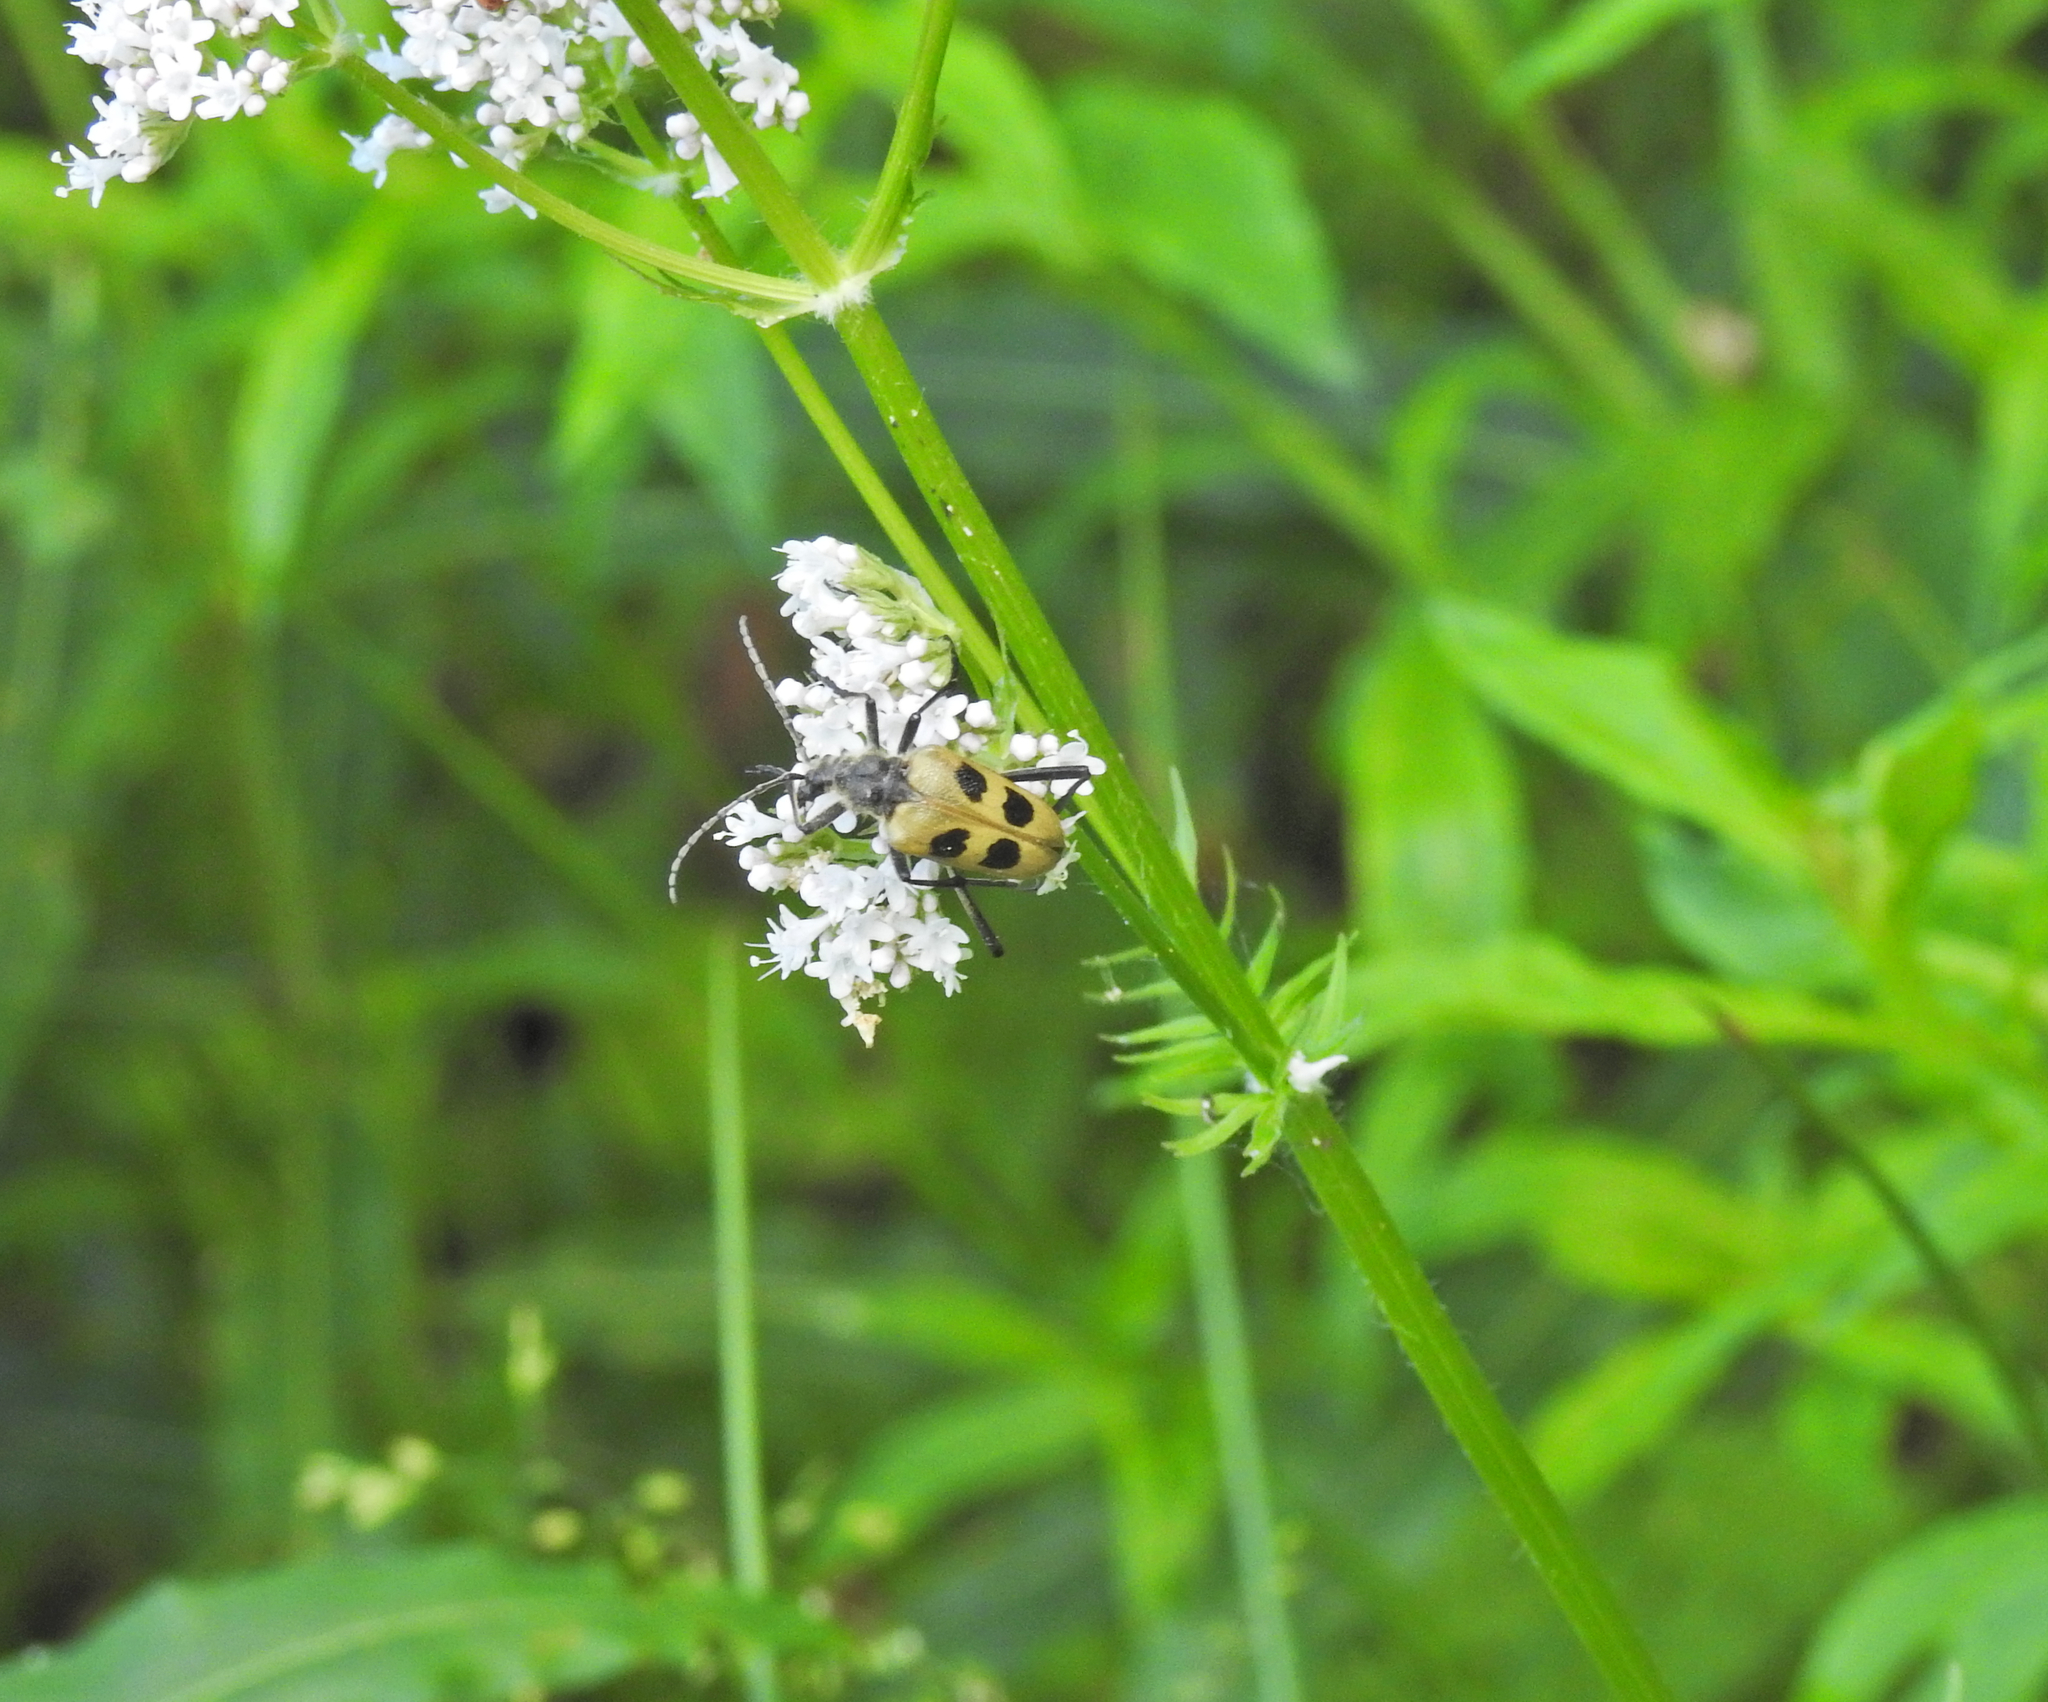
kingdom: Animalia
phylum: Arthropoda
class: Insecta
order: Coleoptera
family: Cerambycidae
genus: Pachyta
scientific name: Pachyta quadrimaculata
